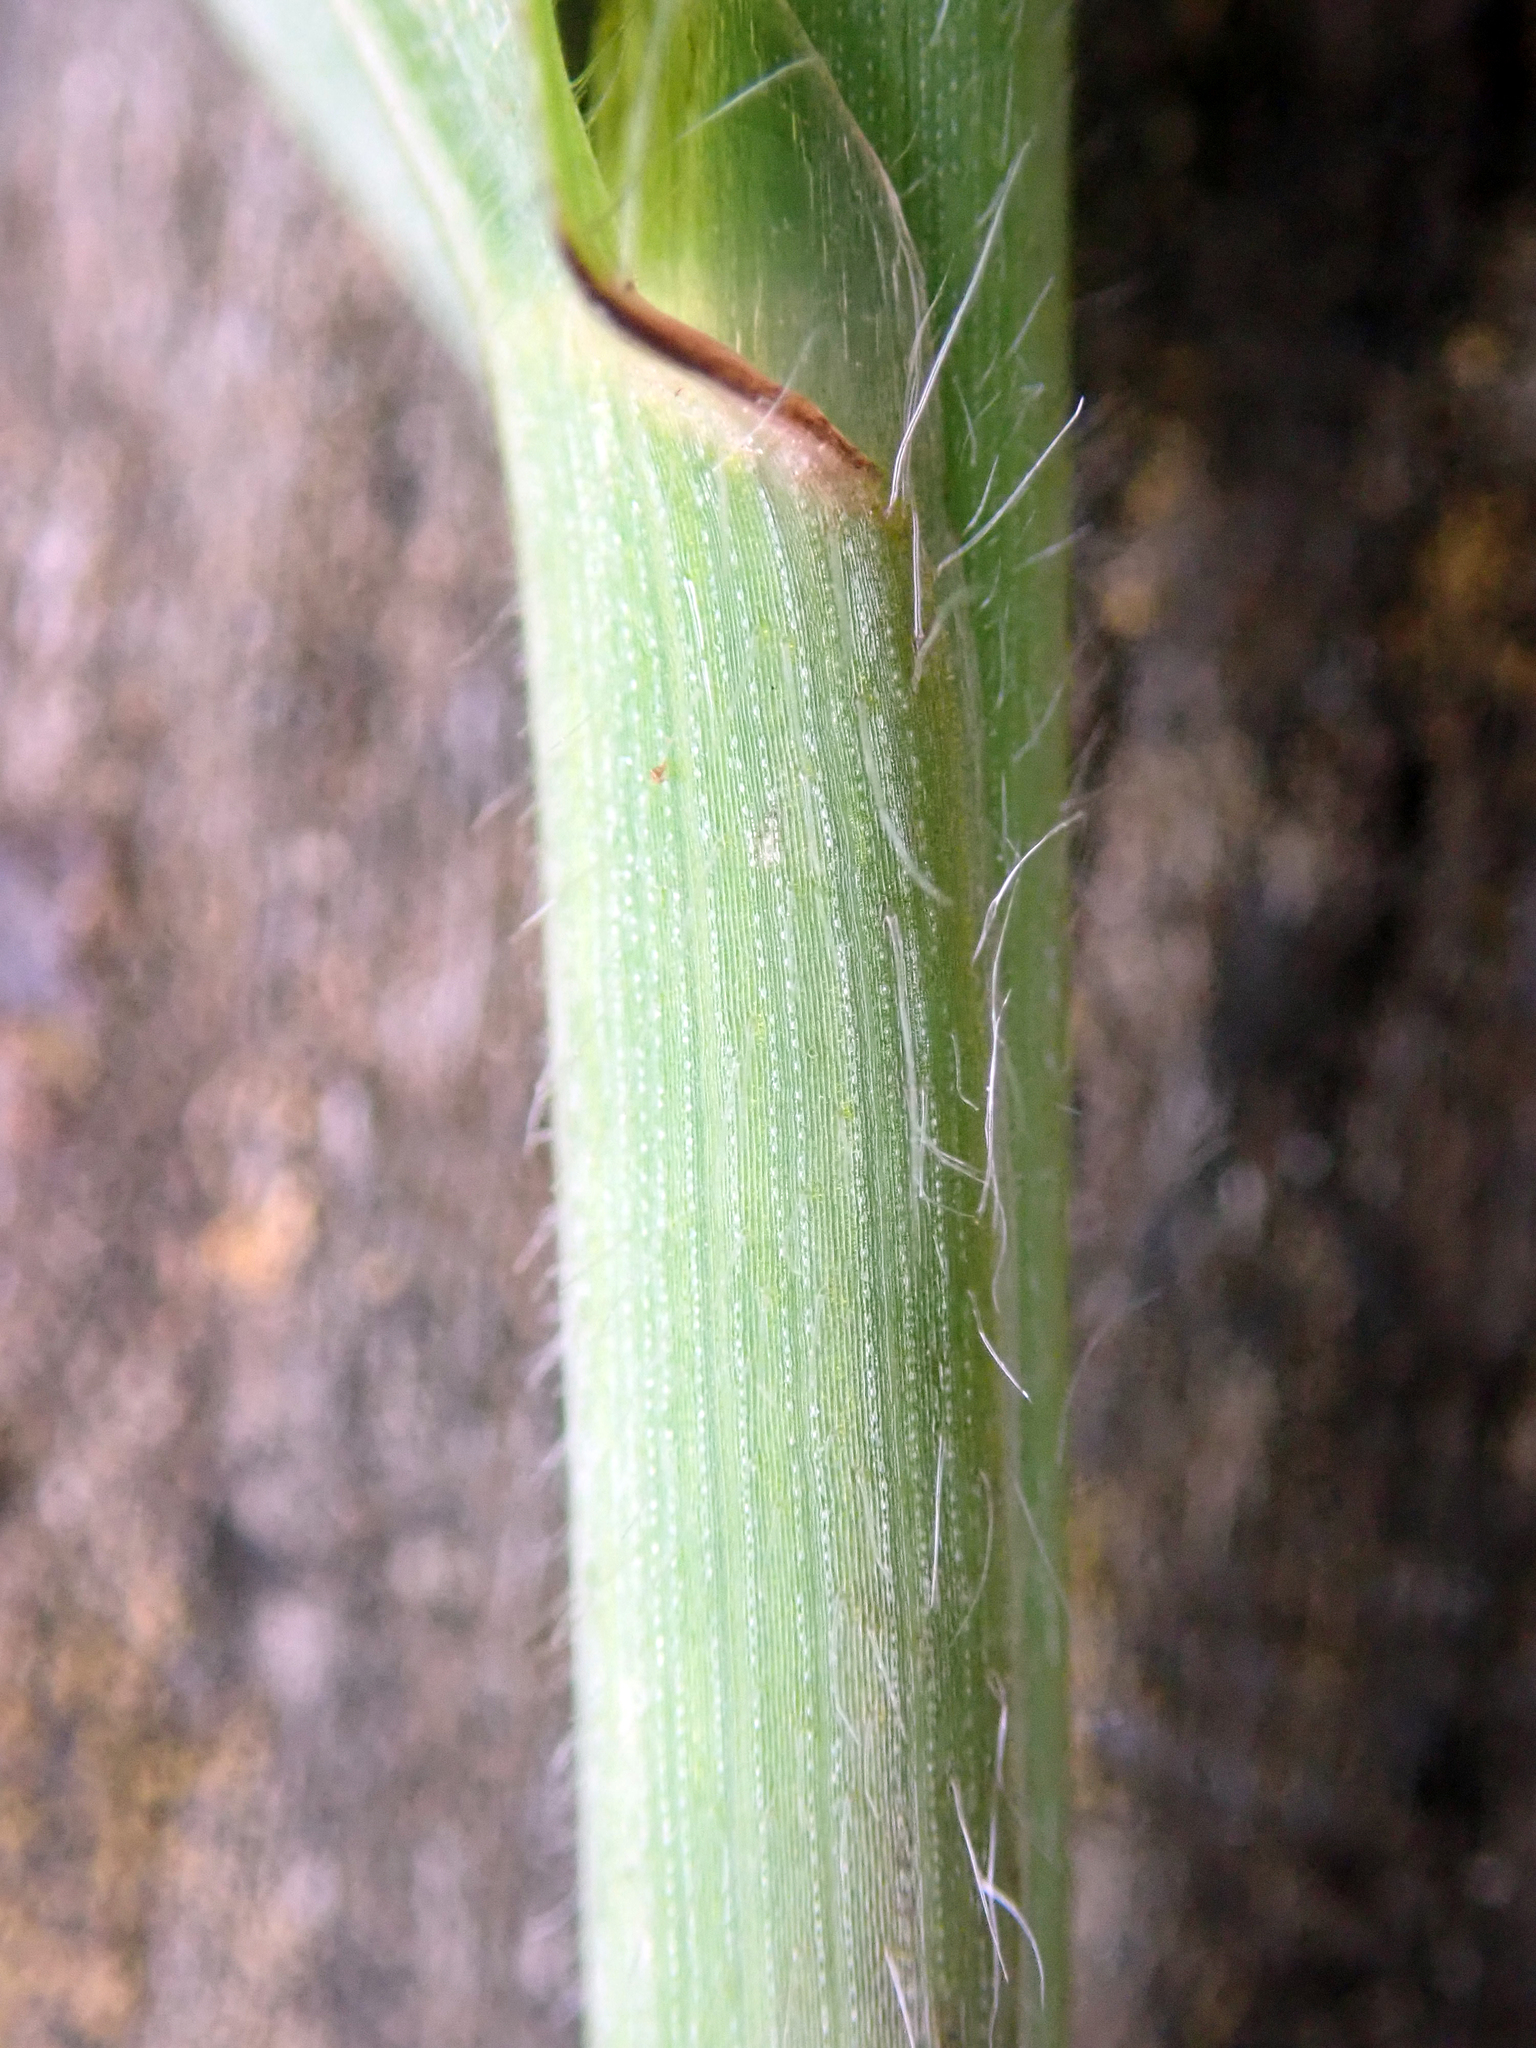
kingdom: Plantae
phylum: Tracheophyta
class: Liliopsida
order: Poales
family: Poaceae
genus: Bromus
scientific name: Bromus diandrus
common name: Ripgut brome
